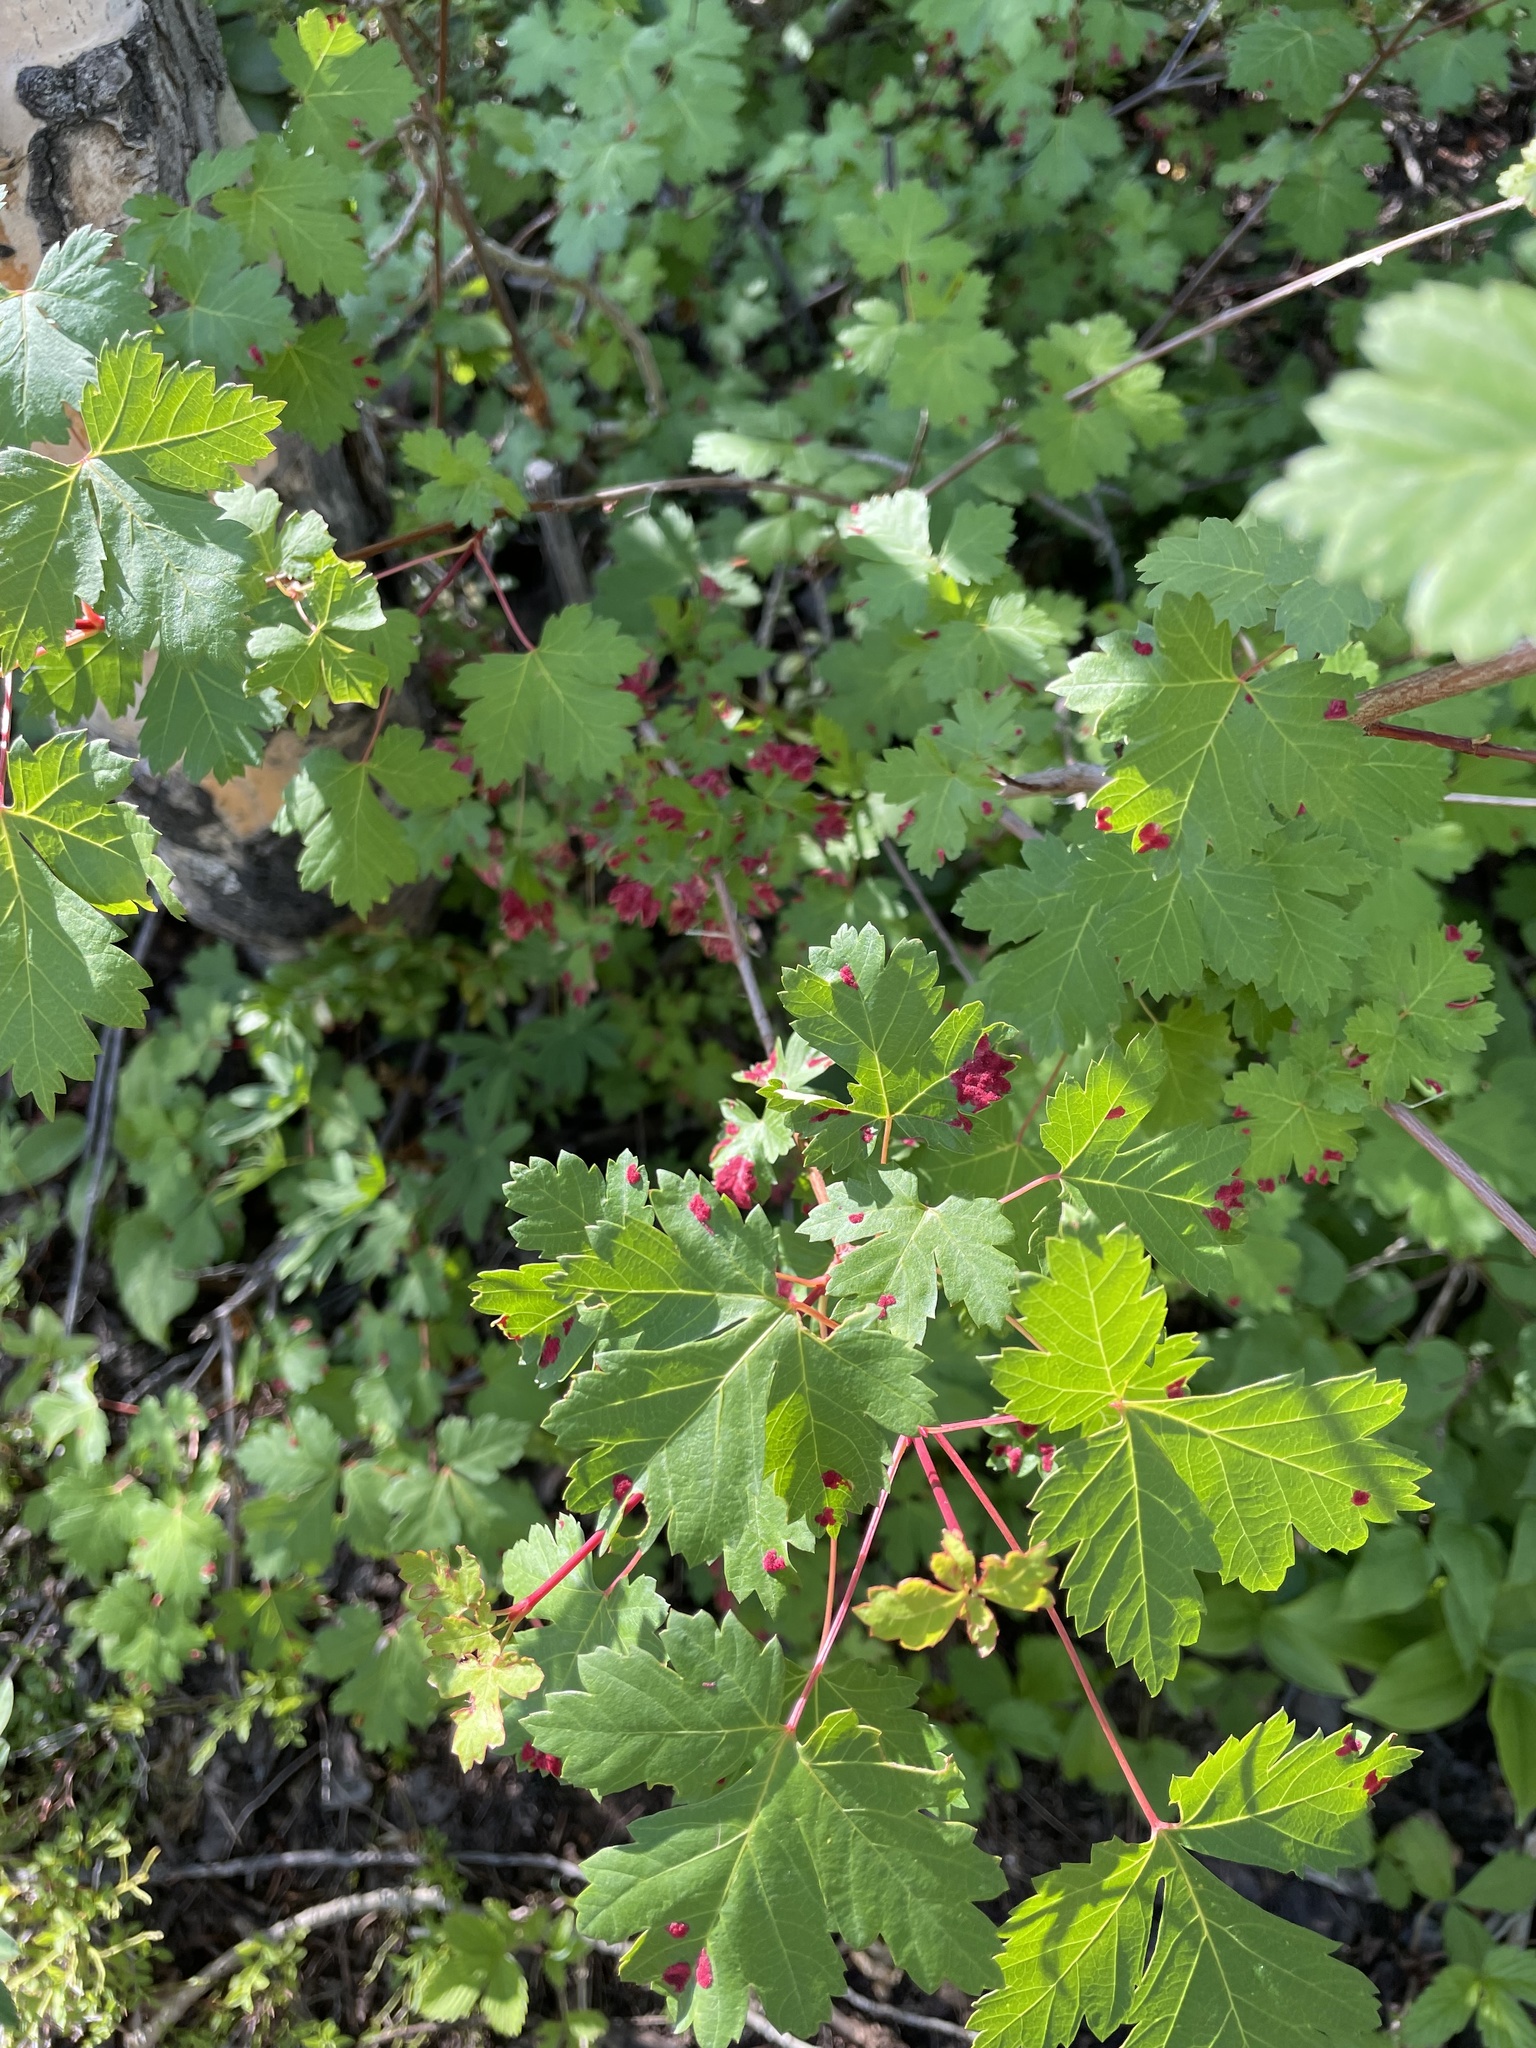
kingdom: Plantae
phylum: Tracheophyta
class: Magnoliopsida
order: Sapindales
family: Sapindaceae
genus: Acer
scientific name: Acer glabrum
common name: Rocky mountain maple
